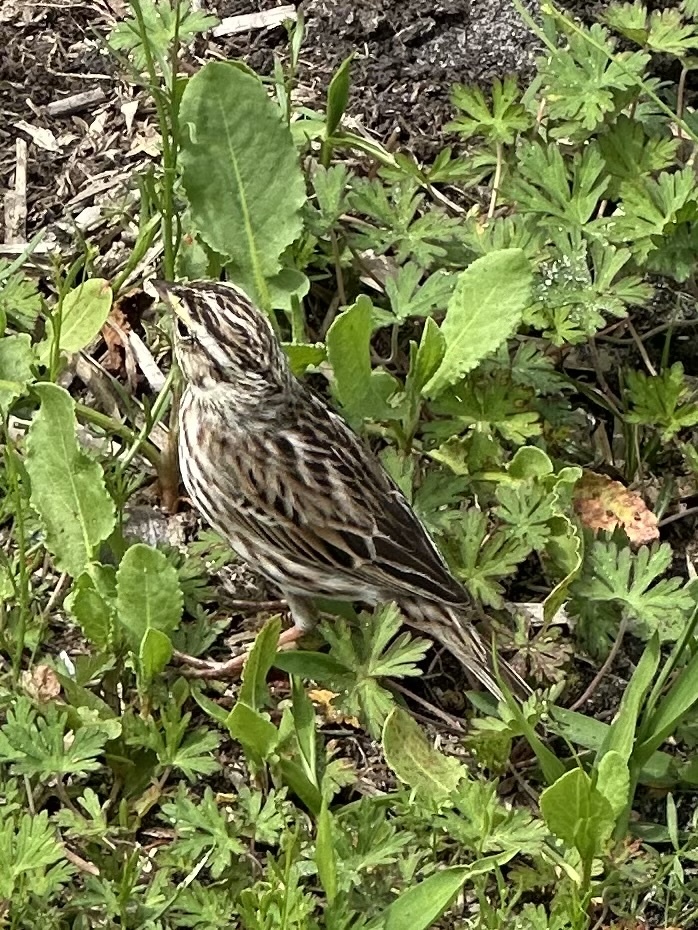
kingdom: Animalia
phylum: Chordata
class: Aves
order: Passeriformes
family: Passerellidae
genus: Passerculus
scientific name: Passerculus sandwichensis
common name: Savannah sparrow
